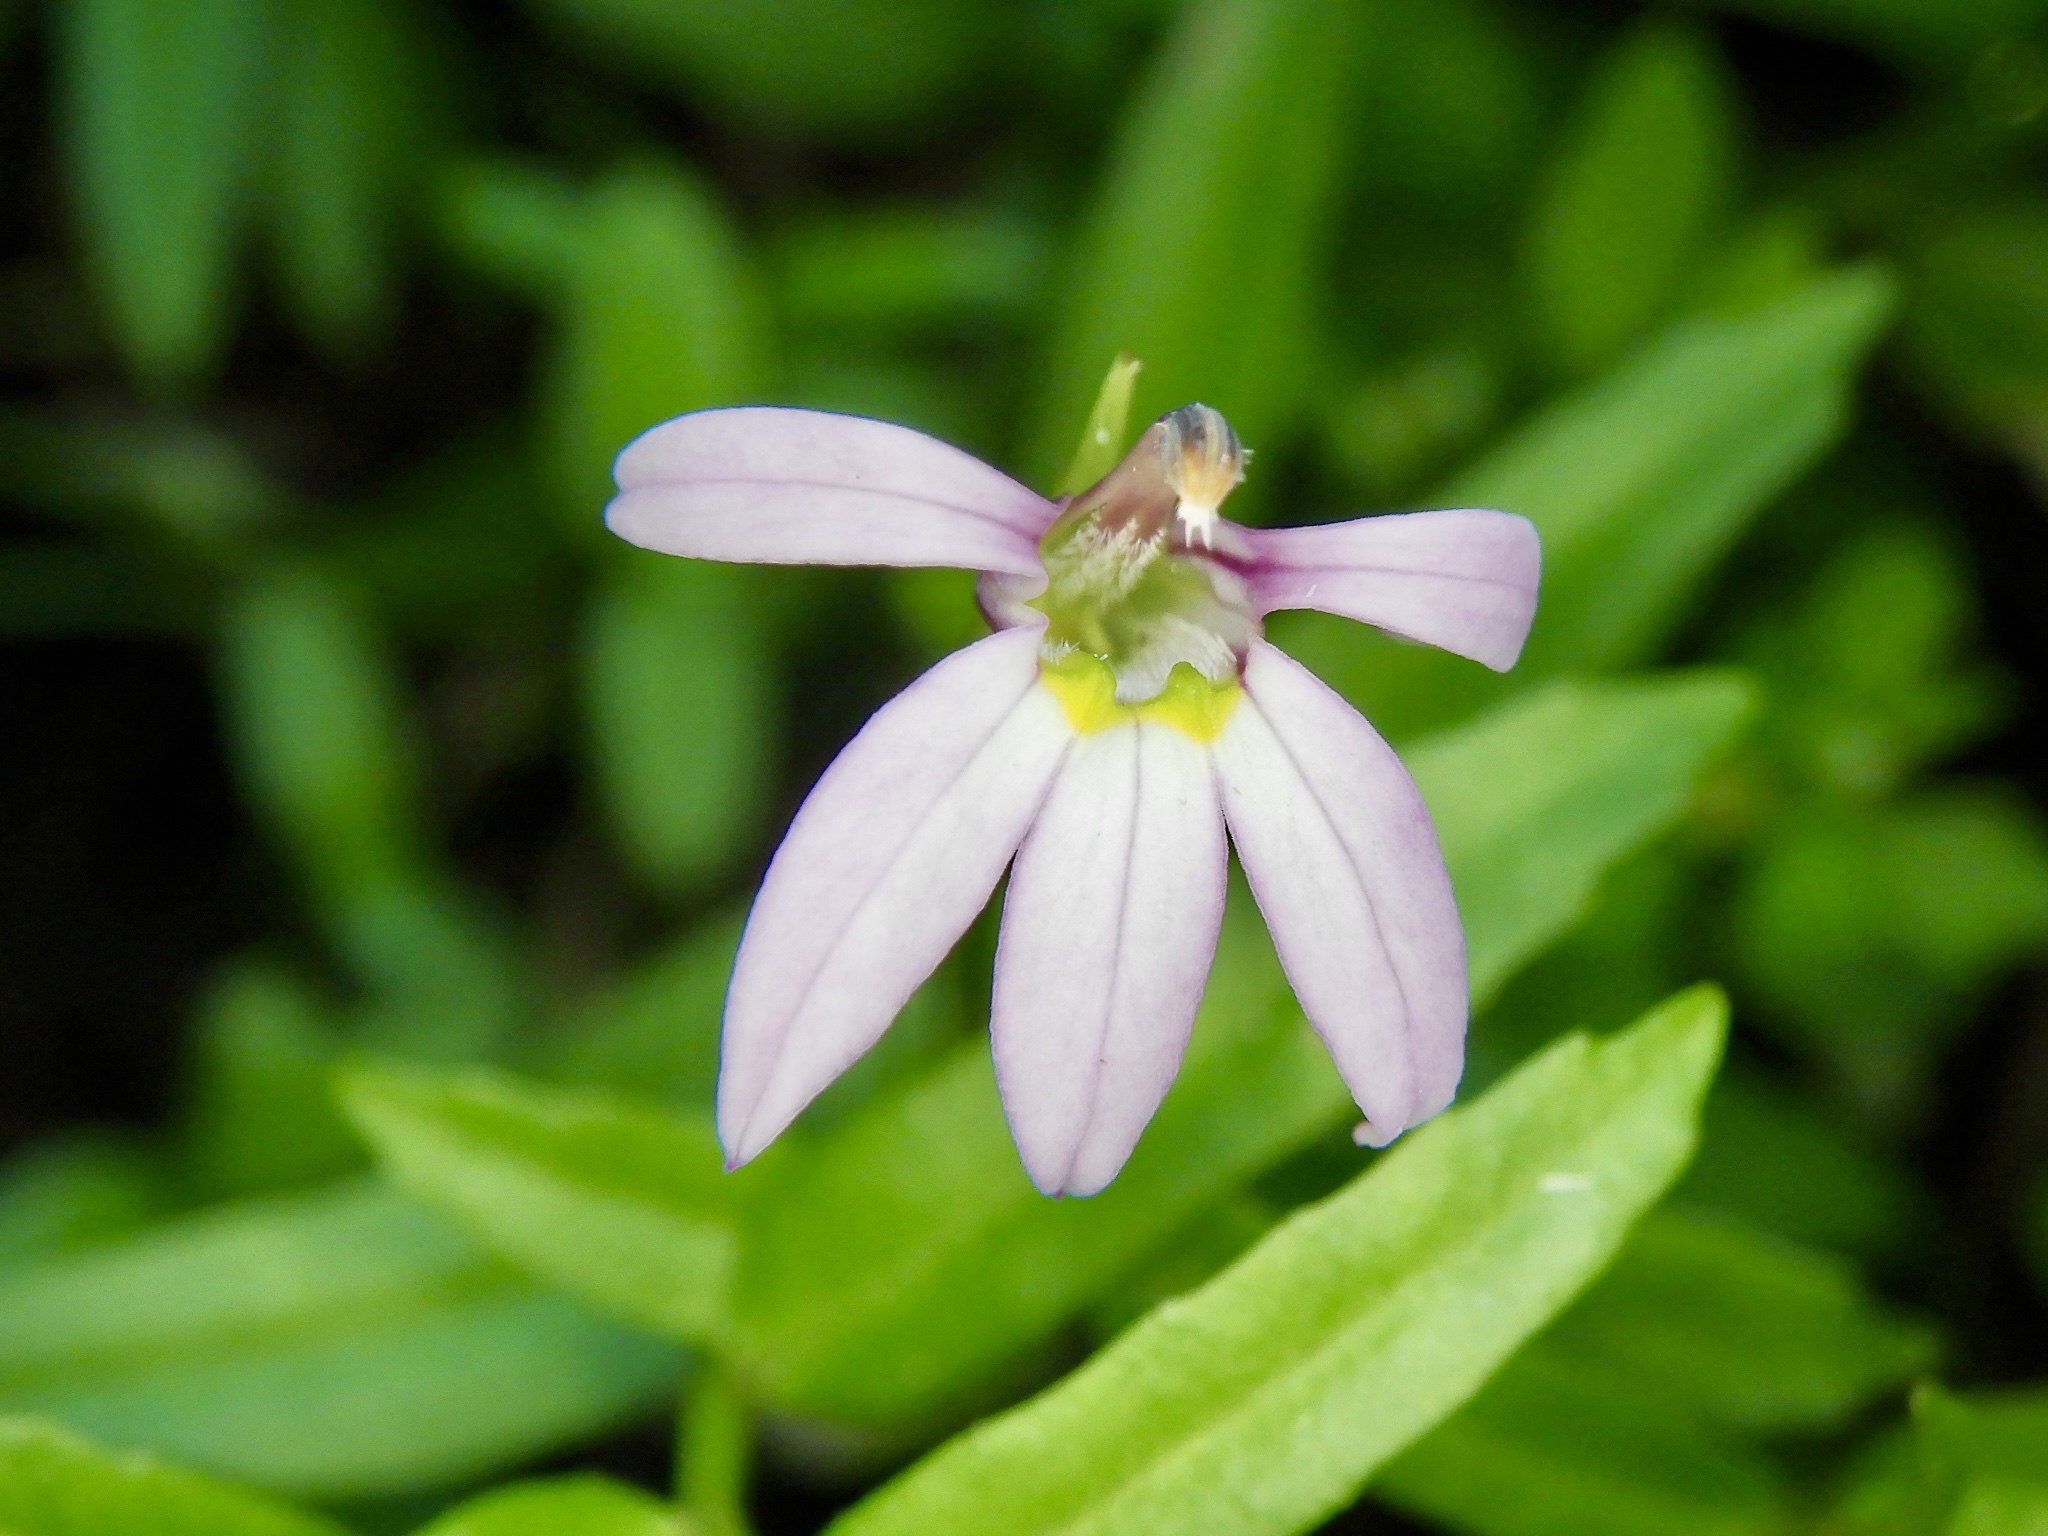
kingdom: Plantae
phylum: Tracheophyta
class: Magnoliopsida
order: Asterales
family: Campanulaceae
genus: Lobelia
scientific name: Lobelia chinensis
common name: Chinese lobelia
